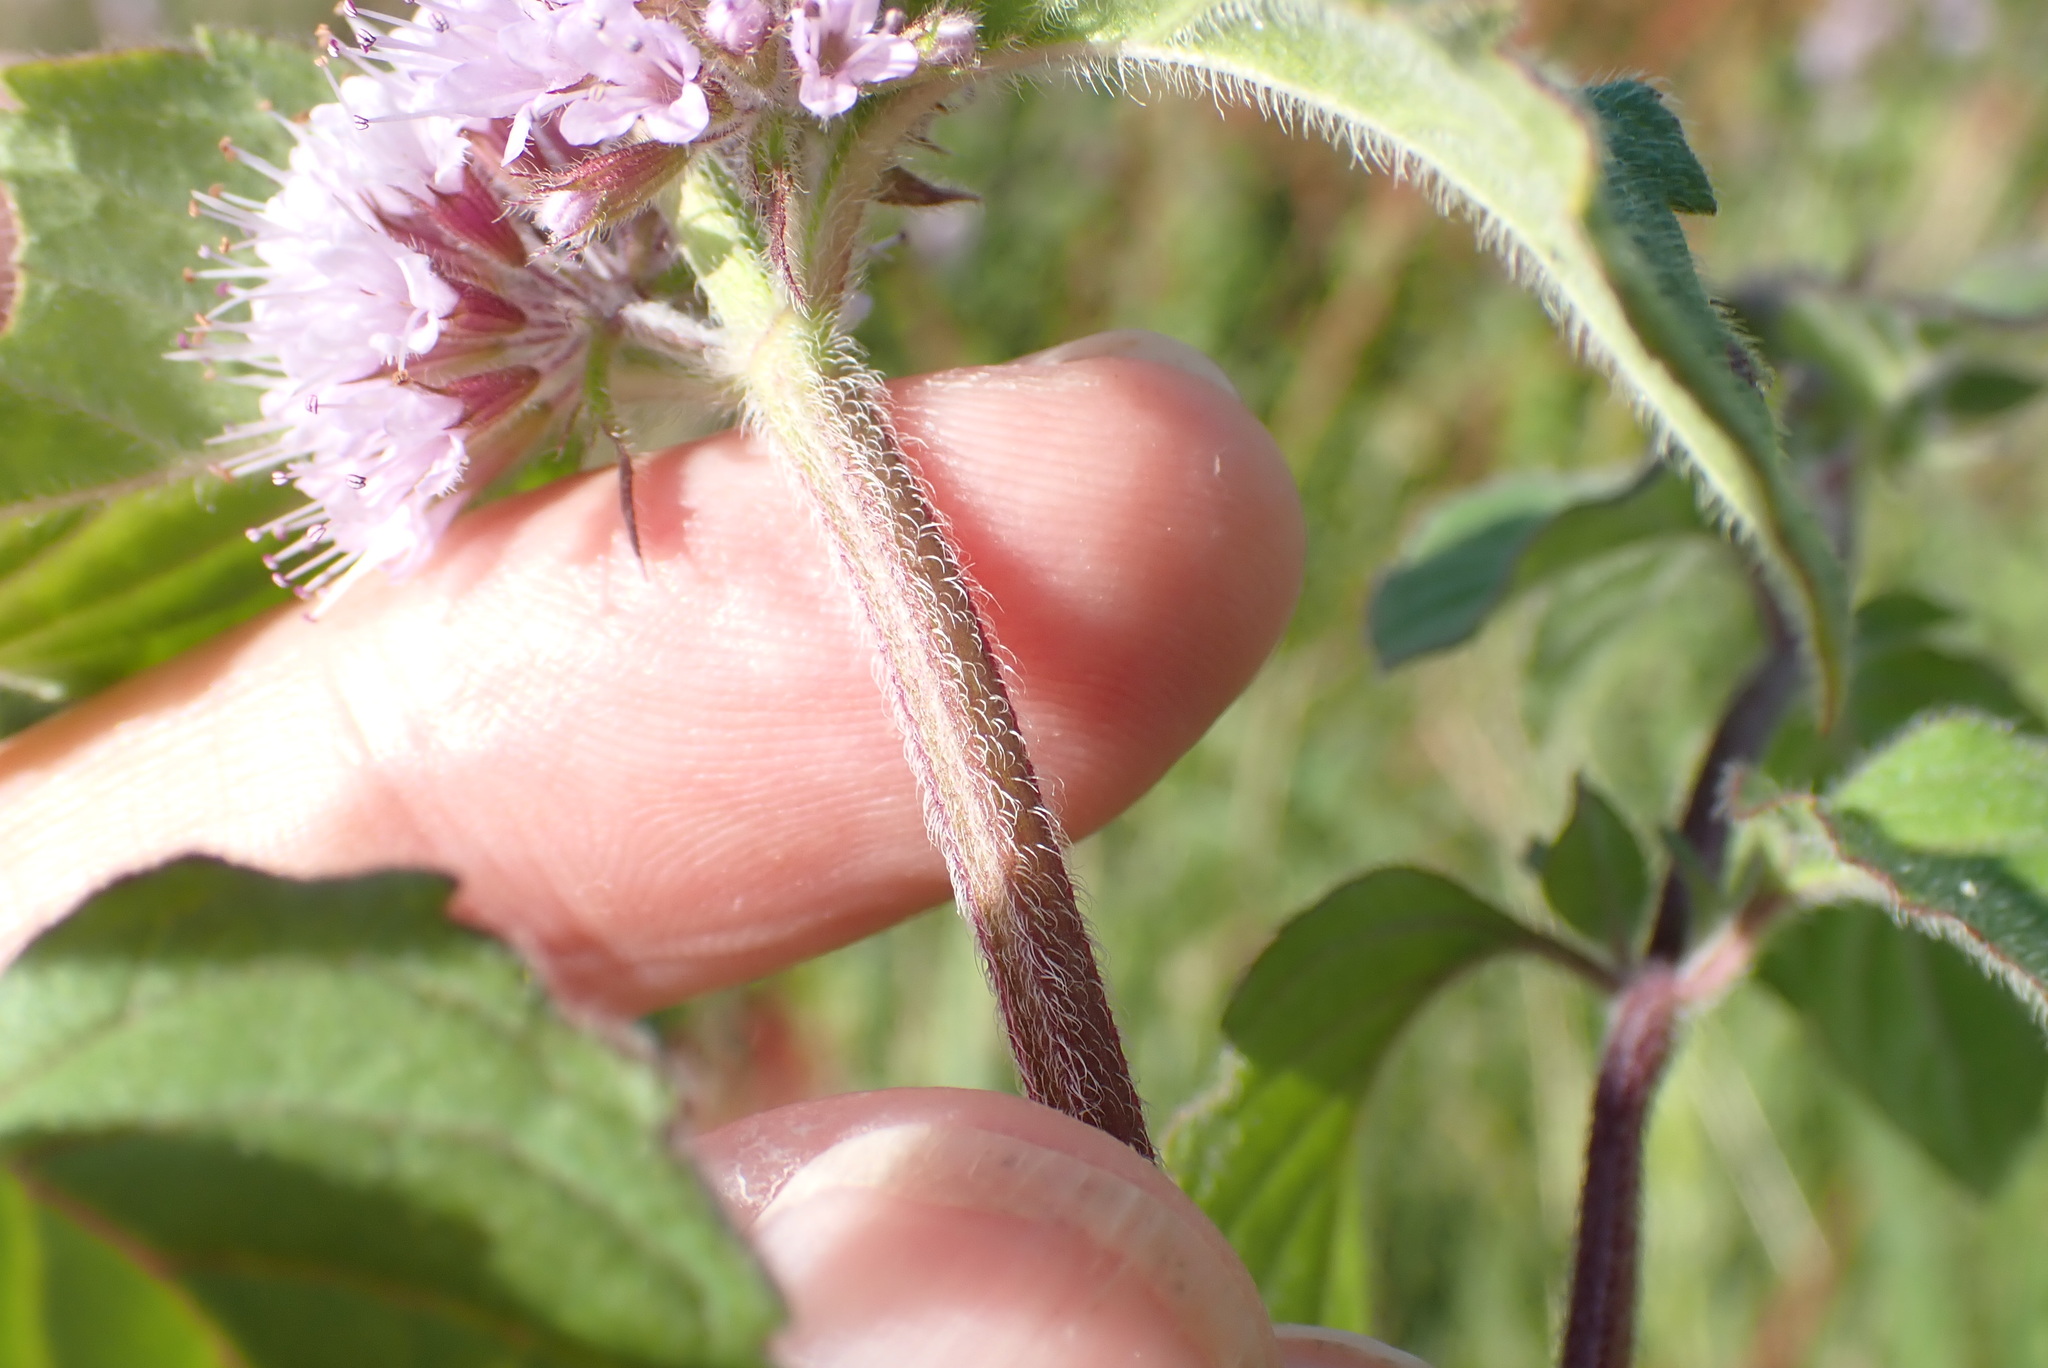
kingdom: Plantae
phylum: Tracheophyta
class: Magnoliopsida
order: Lamiales
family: Lamiaceae
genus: Mentha
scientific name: Mentha aquatica
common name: Water mint
